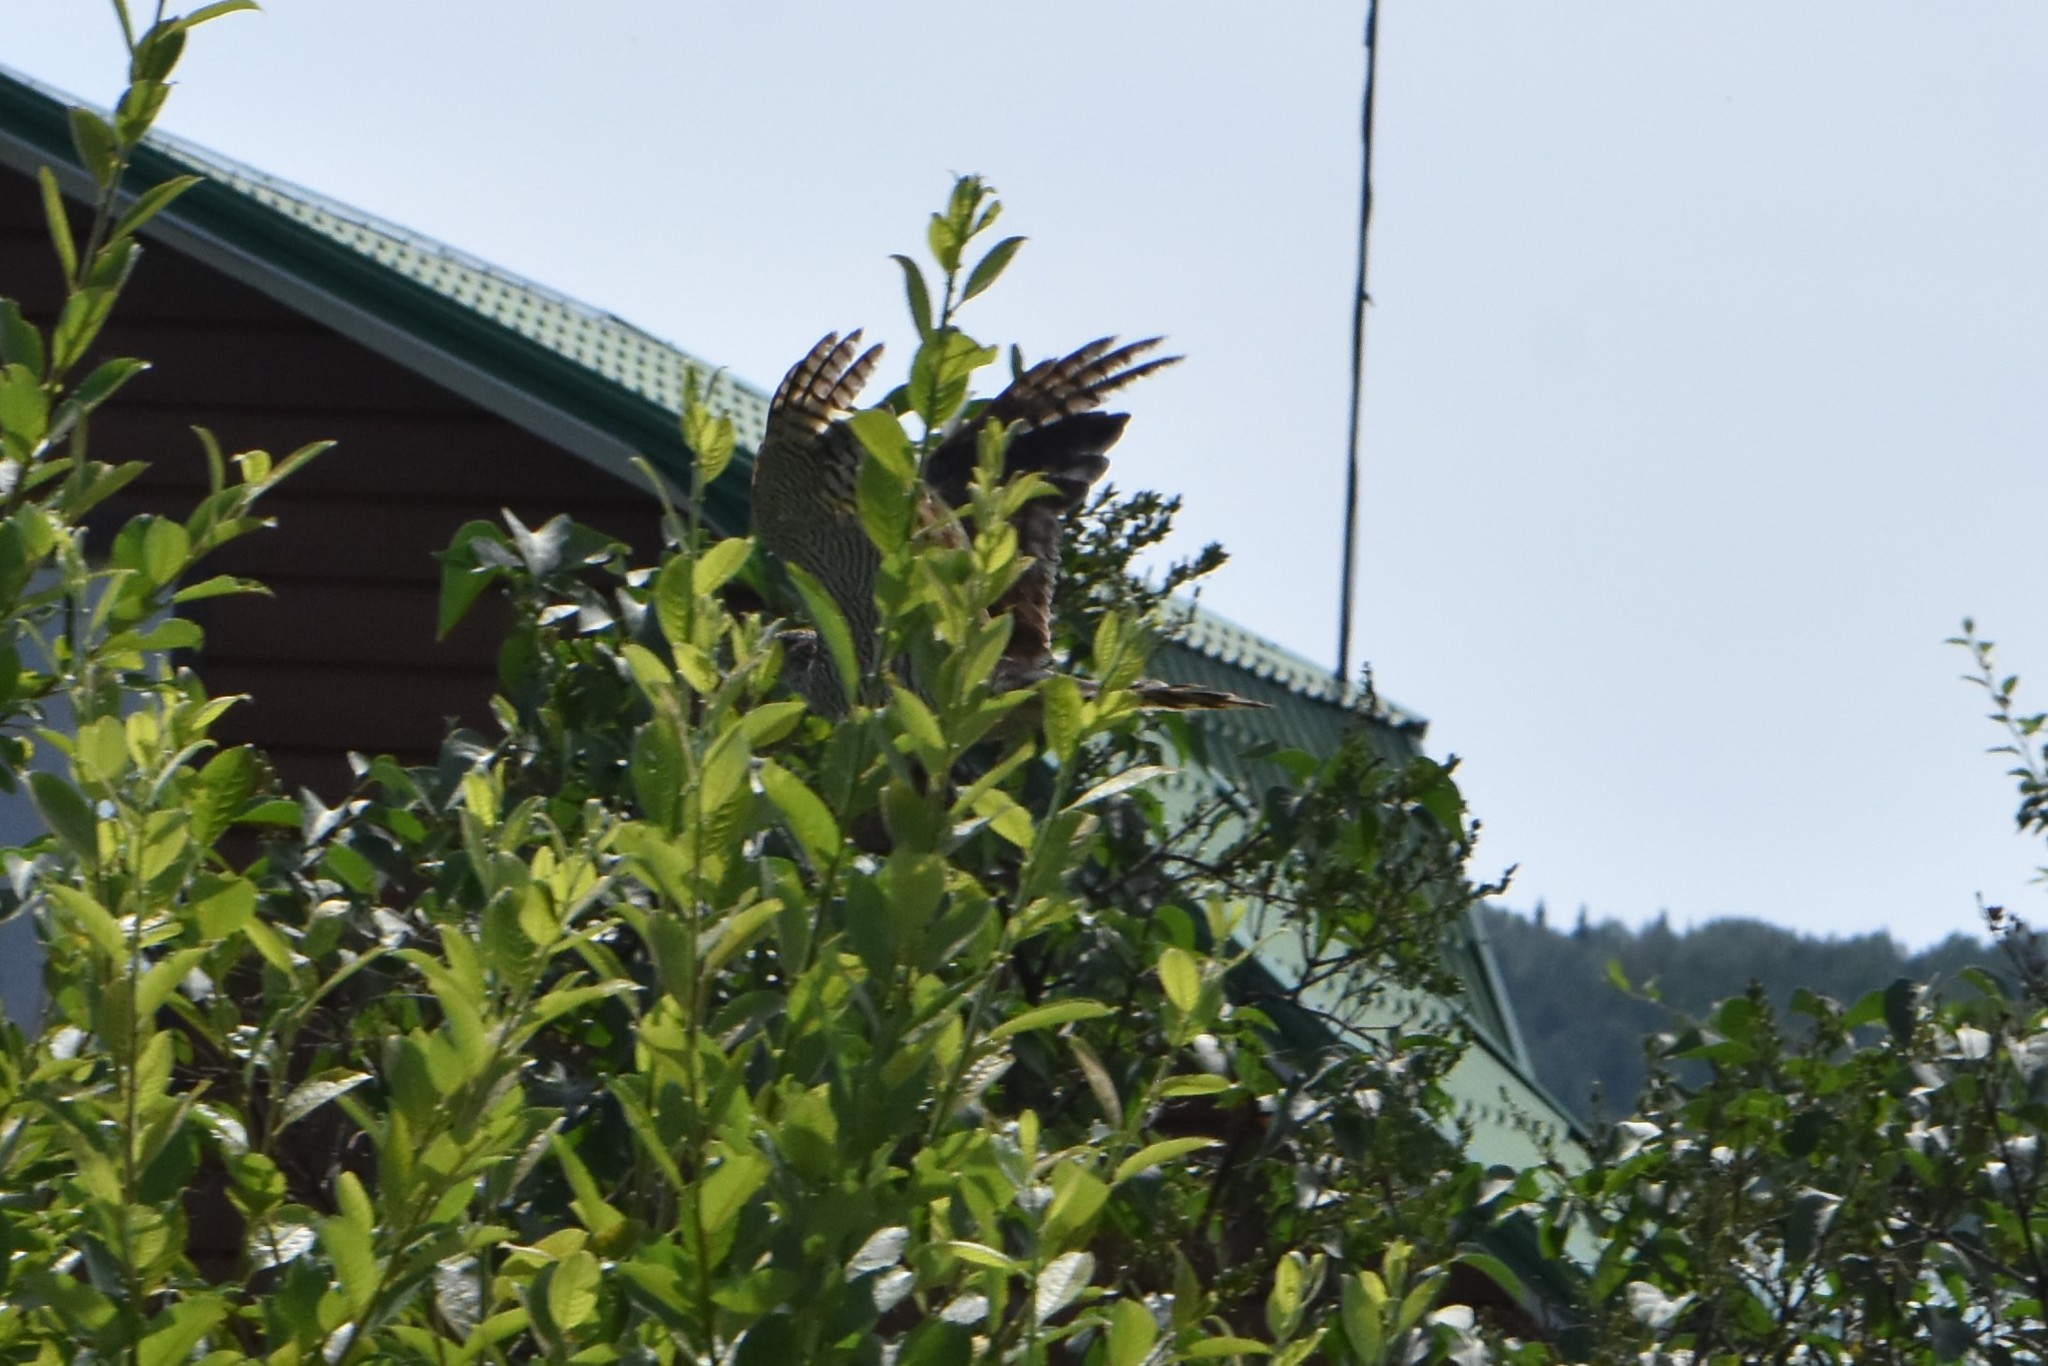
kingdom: Animalia
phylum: Chordata
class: Aves
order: Accipitriformes
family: Accipitridae
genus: Accipiter
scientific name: Accipiter nisus
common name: Eurasian sparrowhawk
